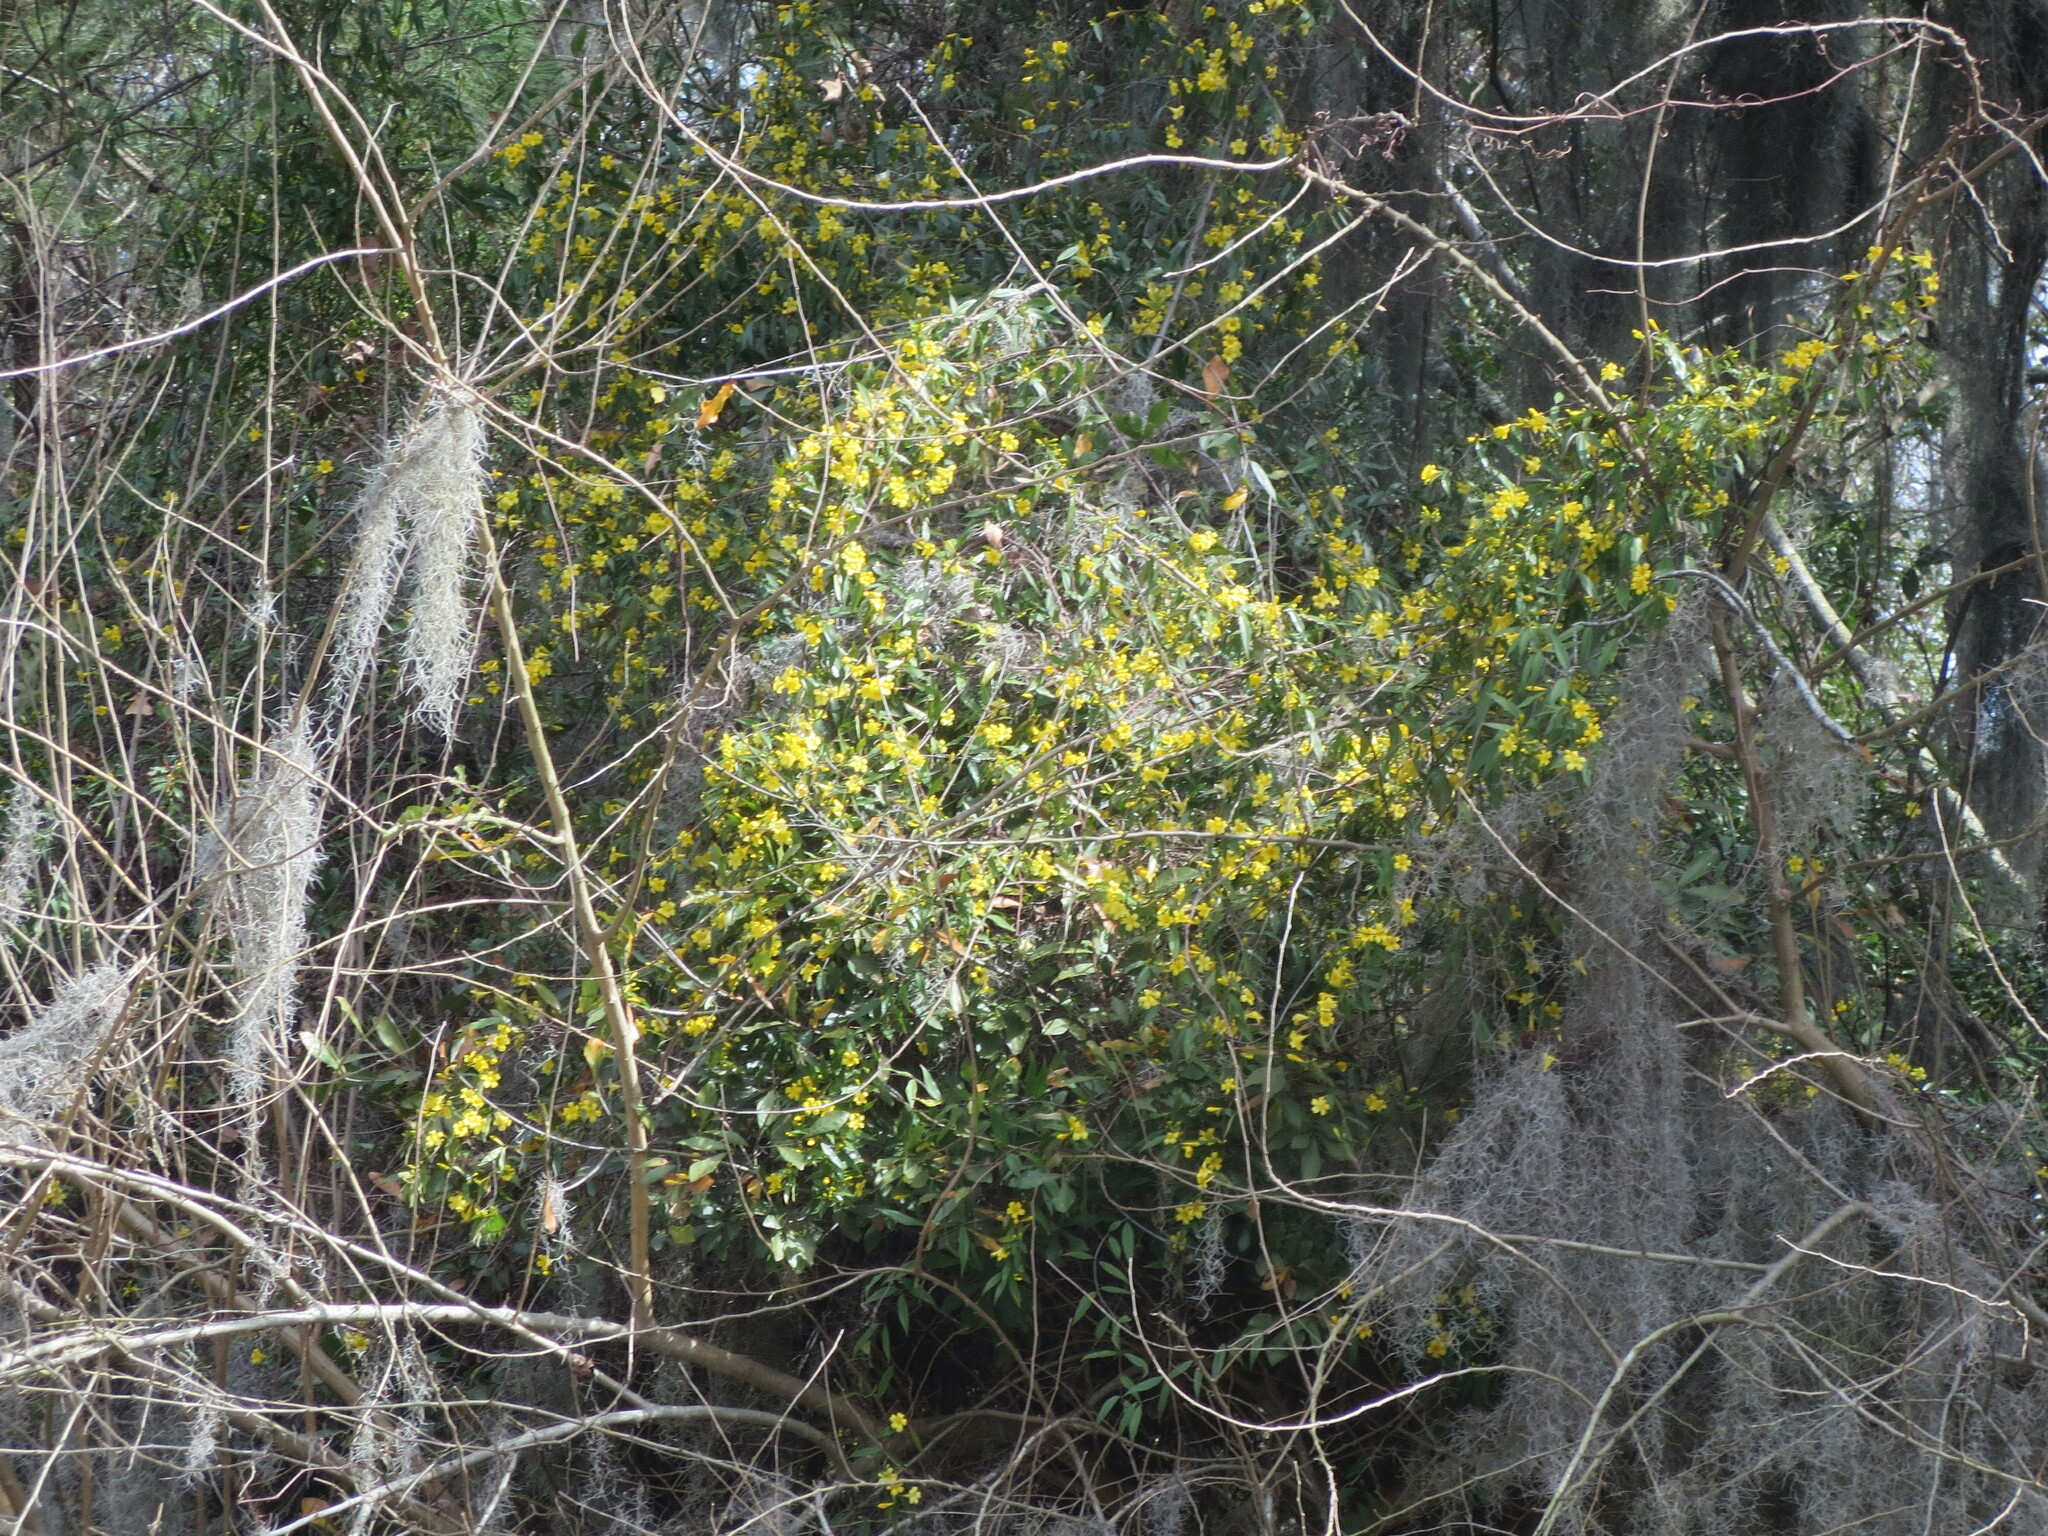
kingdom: Plantae
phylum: Tracheophyta
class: Magnoliopsida
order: Gentianales
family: Gelsemiaceae
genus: Gelsemium
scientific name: Gelsemium sempervirens
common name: Carolina-jasmine
